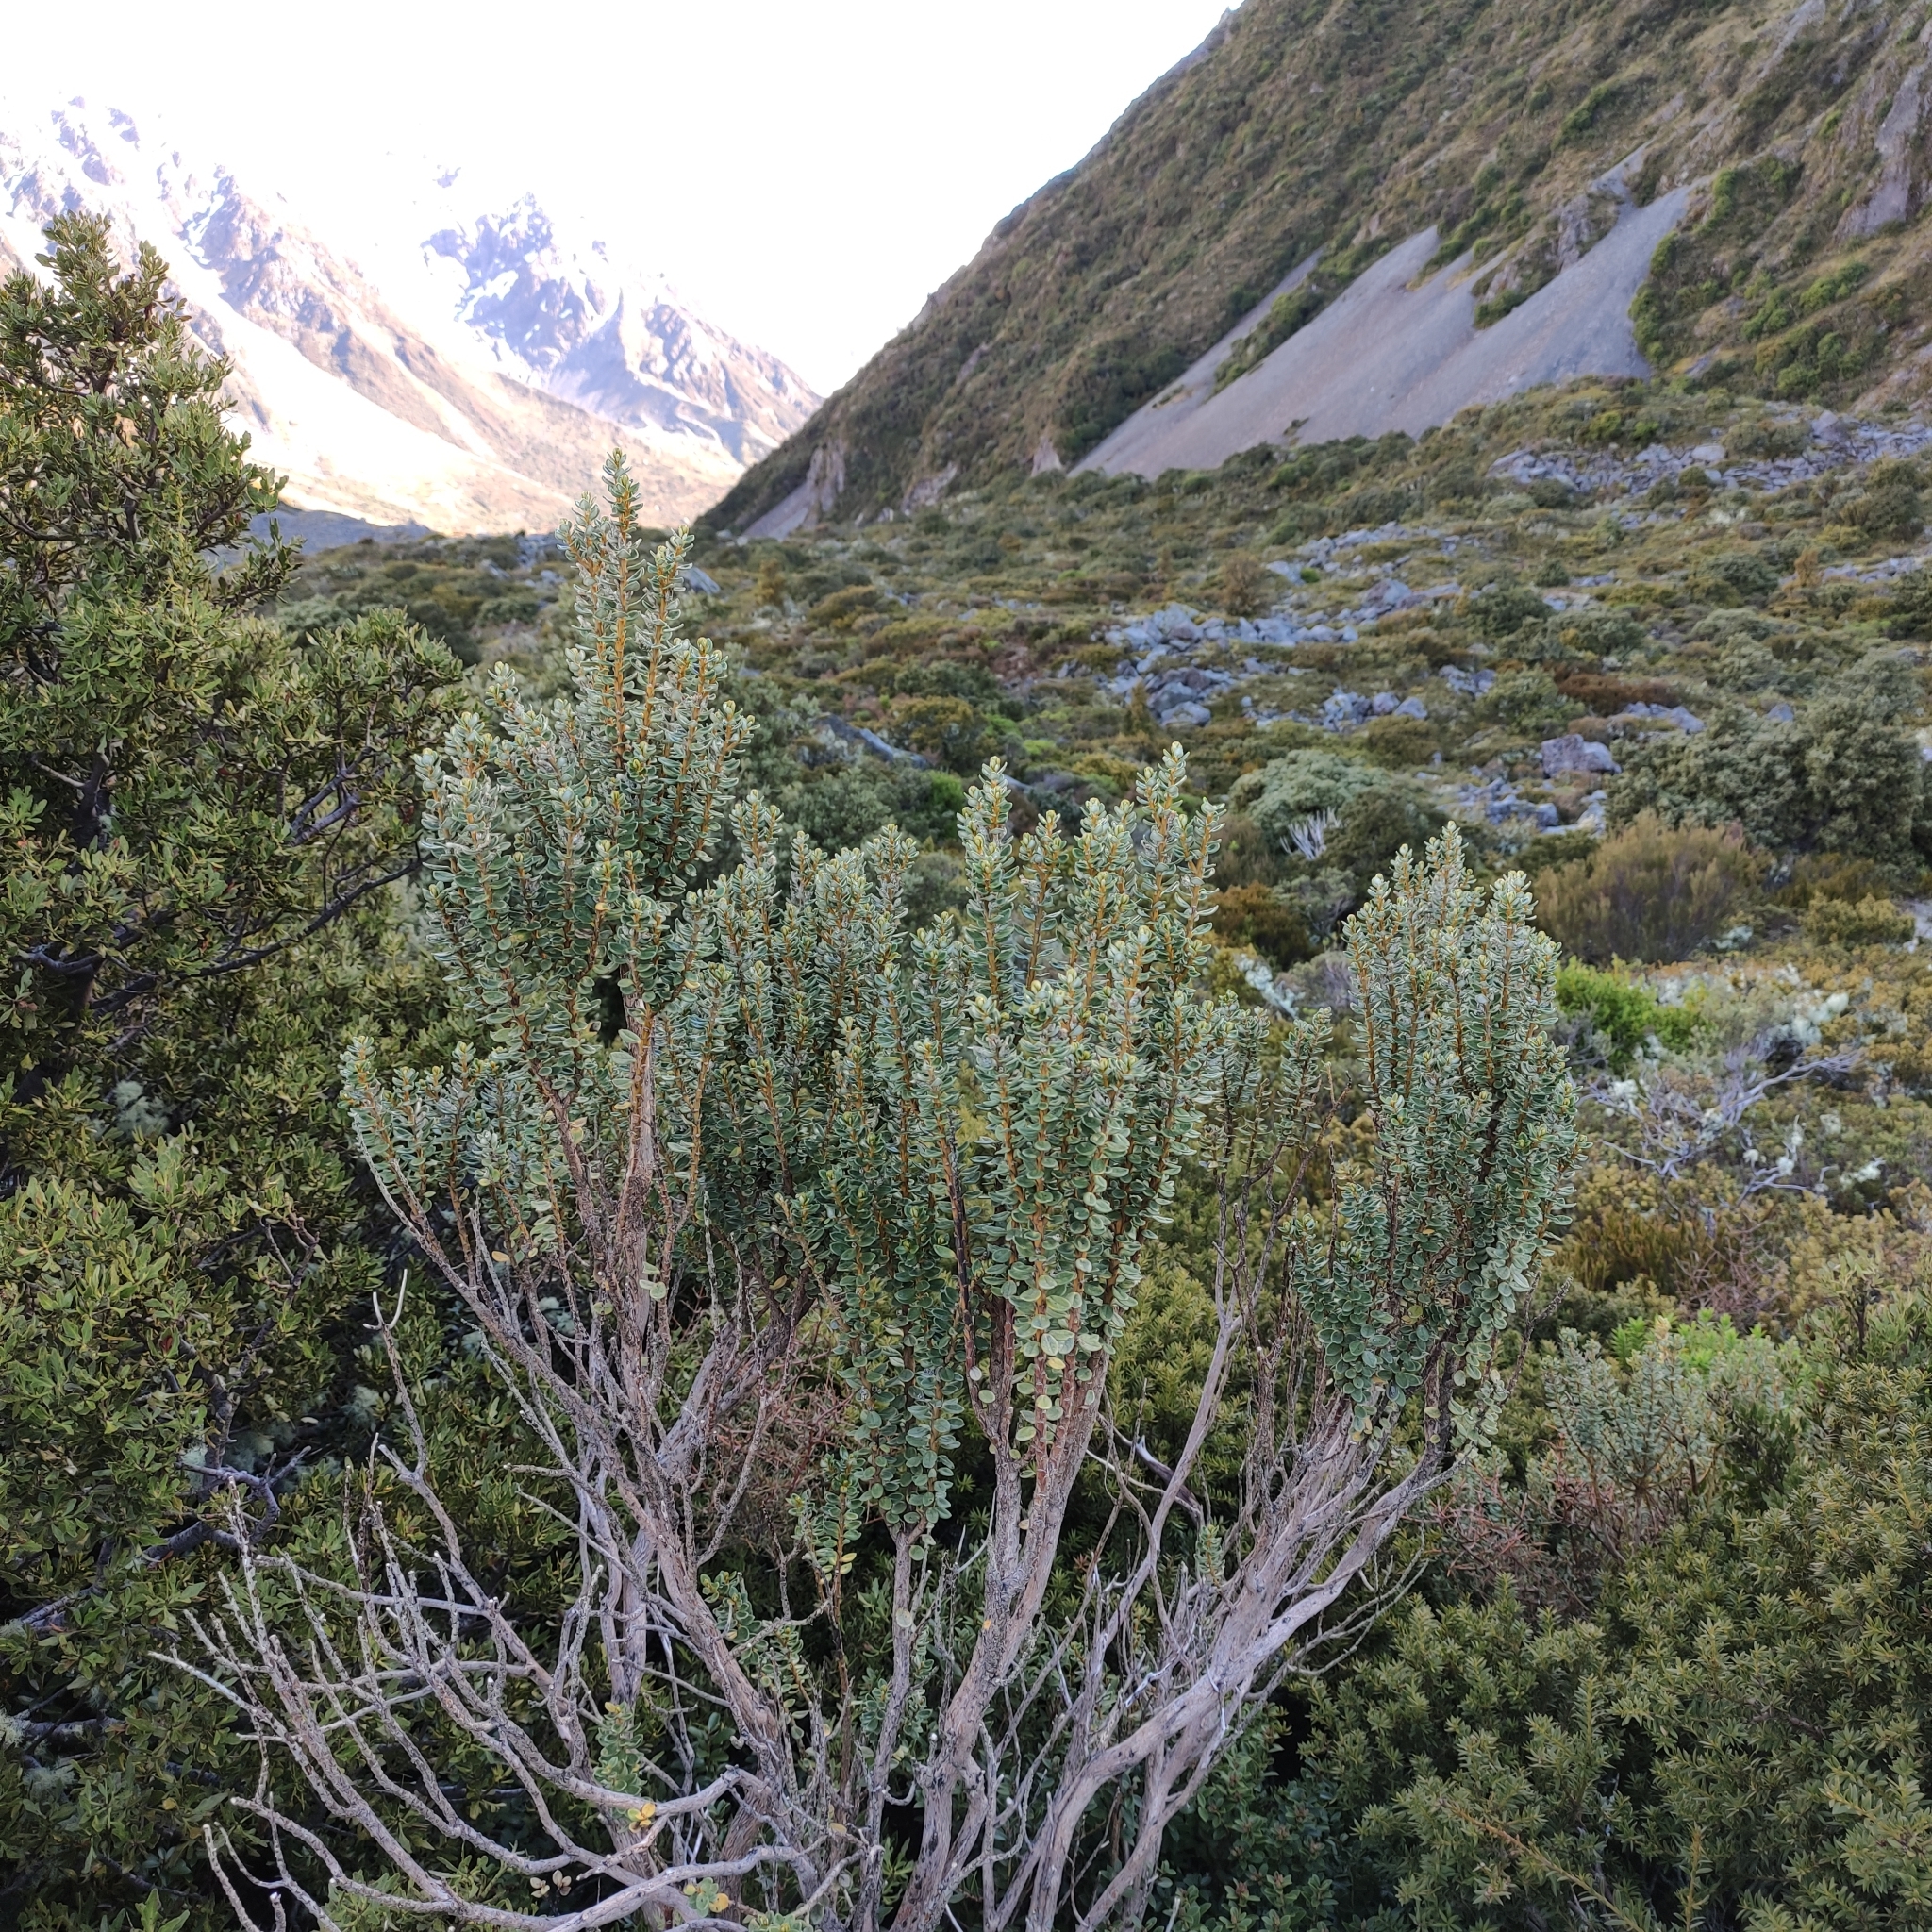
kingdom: Plantae
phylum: Tracheophyta
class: Magnoliopsida
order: Asterales
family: Asteraceae
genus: Olearia
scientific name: Olearia nummularifolia
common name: Sticky daisybush
